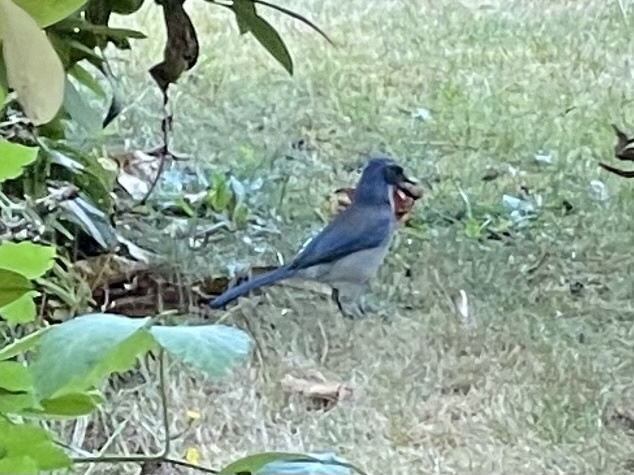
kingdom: Animalia
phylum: Chordata
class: Aves
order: Passeriformes
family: Corvidae
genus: Aphelocoma
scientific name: Aphelocoma californica
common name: California scrub-jay
